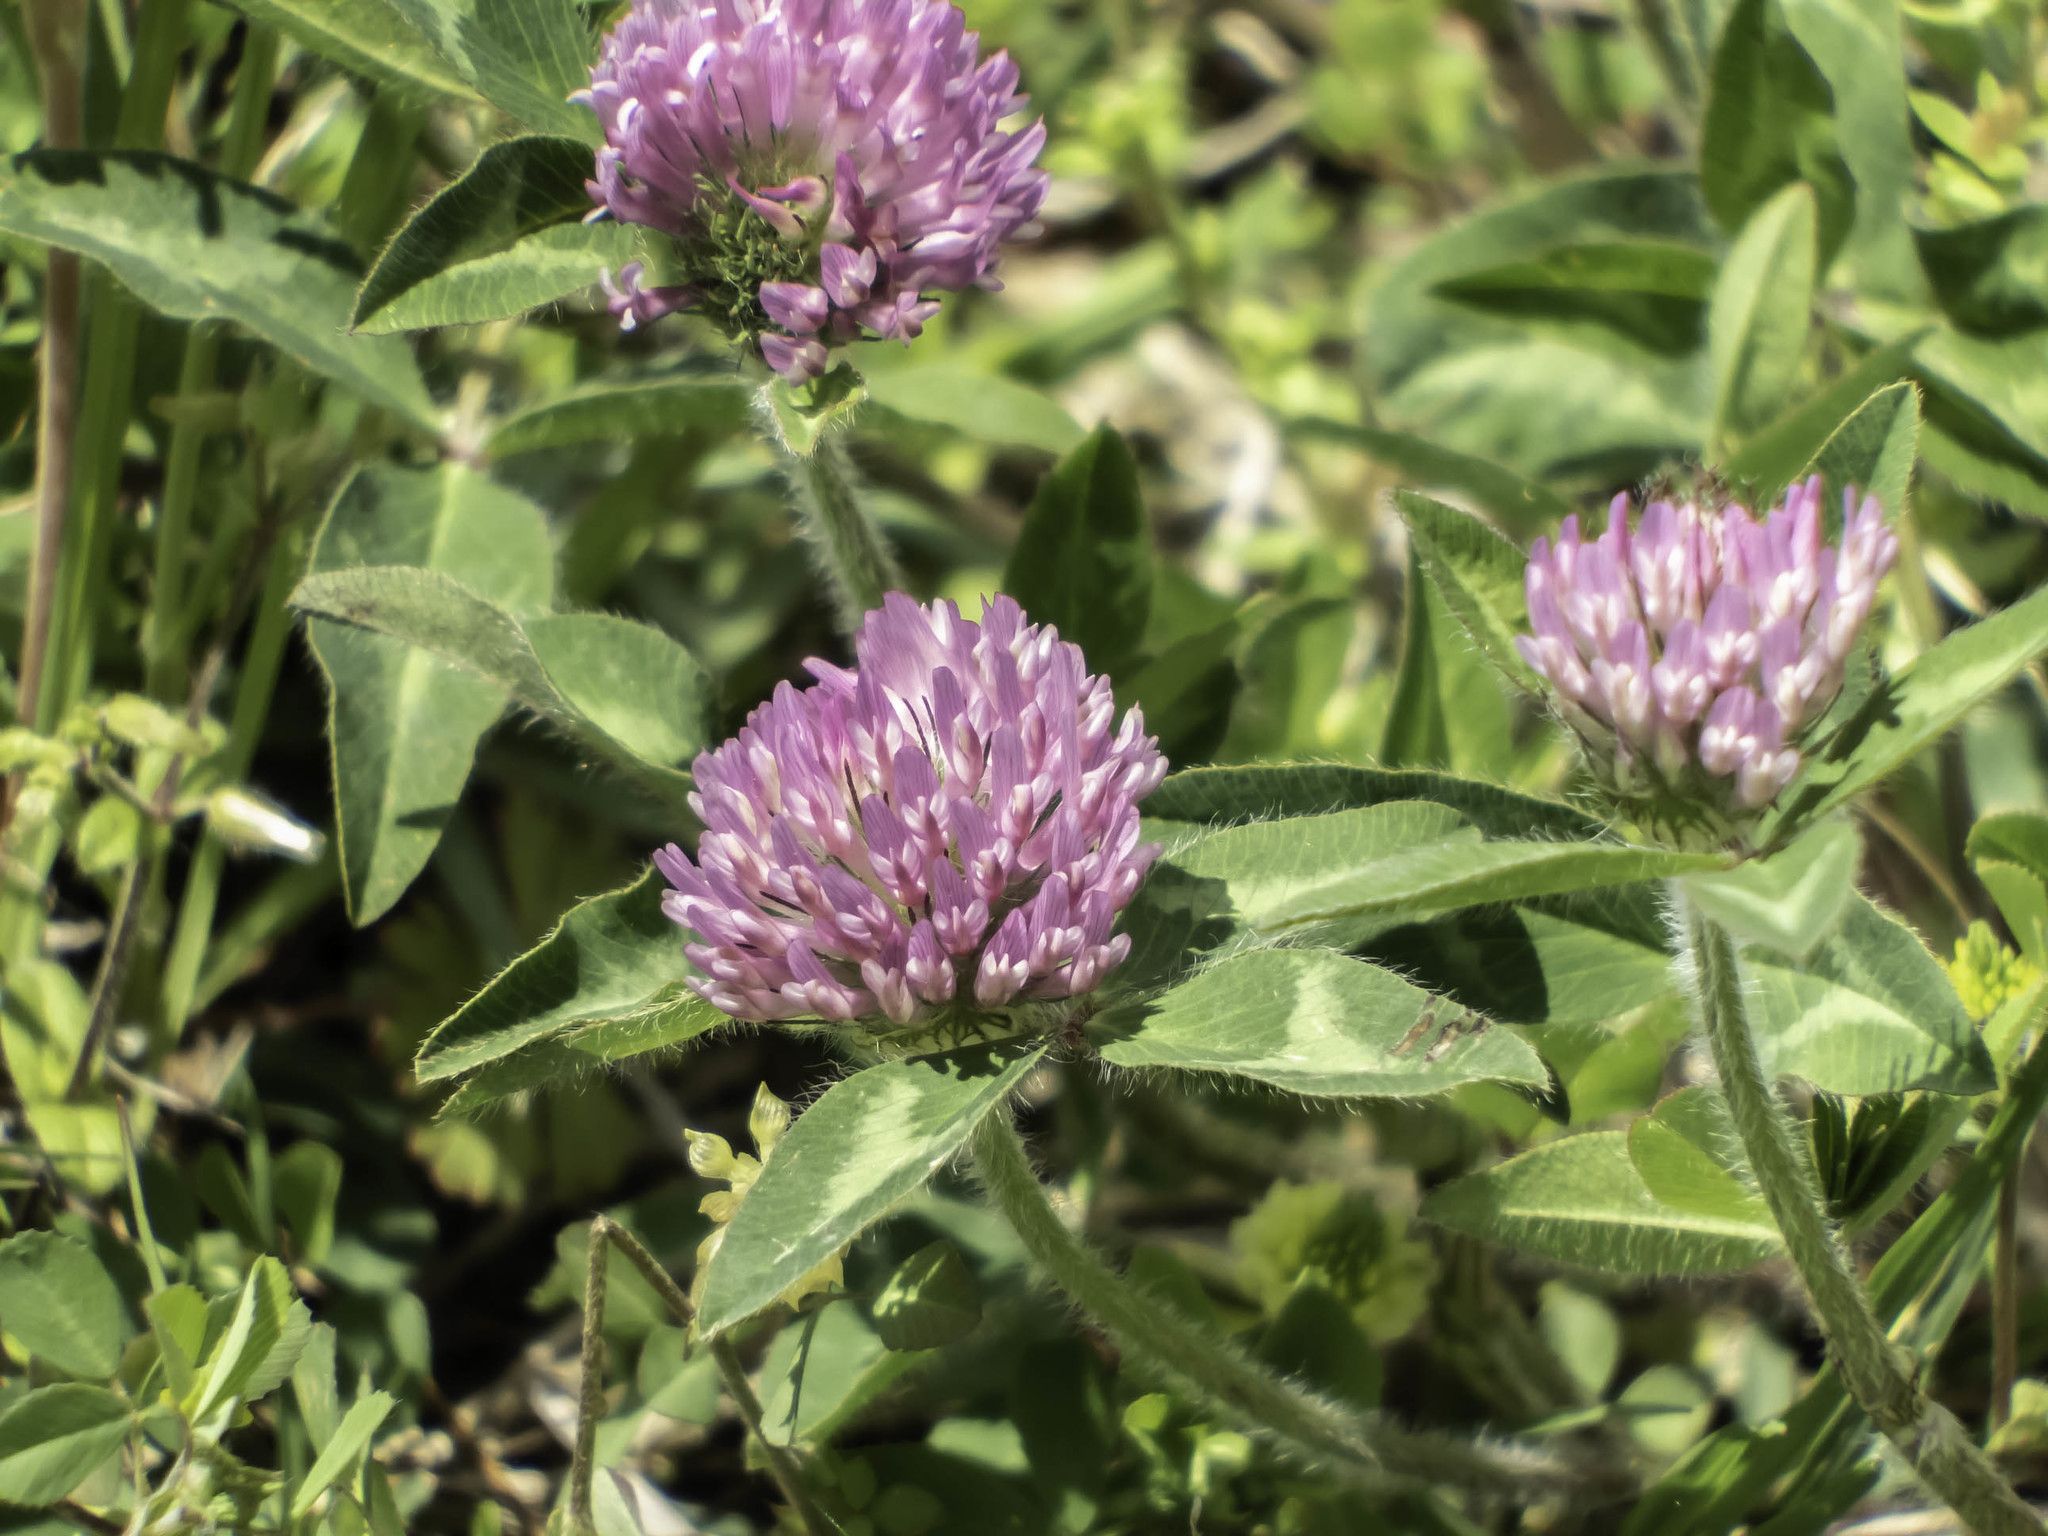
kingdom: Plantae
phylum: Tracheophyta
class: Magnoliopsida
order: Fabales
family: Fabaceae
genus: Trifolium
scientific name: Trifolium pratense
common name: Red clover
